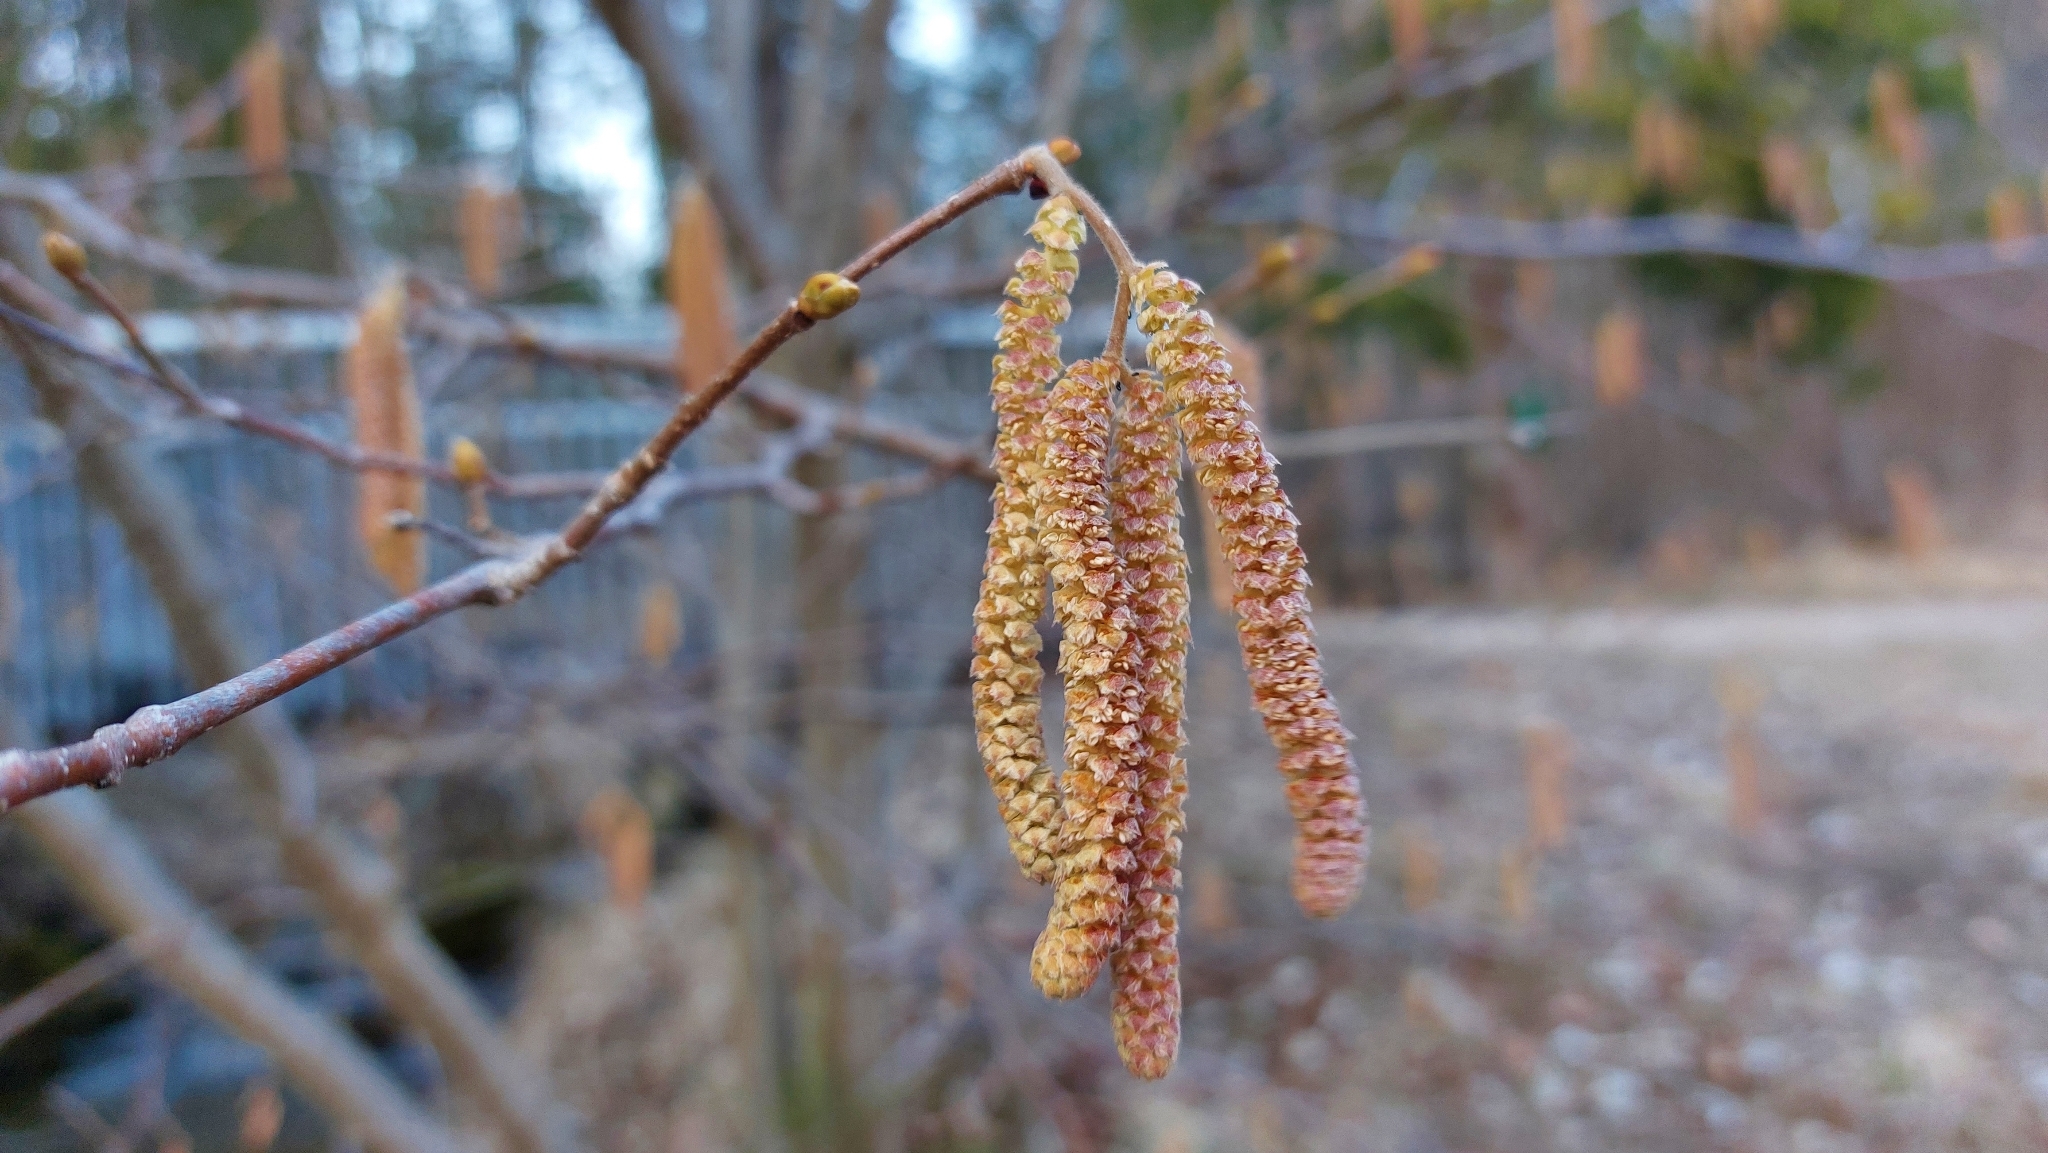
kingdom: Plantae
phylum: Tracheophyta
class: Magnoliopsida
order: Fagales
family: Betulaceae
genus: Corylus
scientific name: Corylus avellana
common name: European hazel
